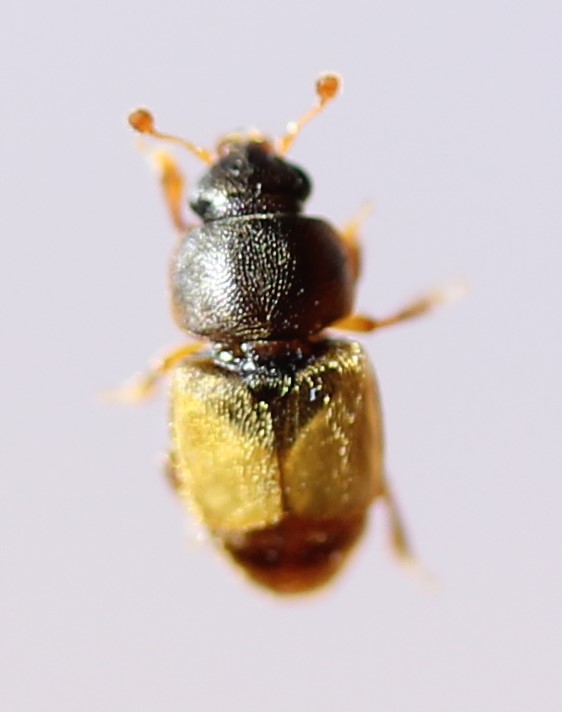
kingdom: Animalia
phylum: Arthropoda
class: Insecta
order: Coleoptera
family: Nitidulidae
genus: Nitops
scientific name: Nitops pallipennis
